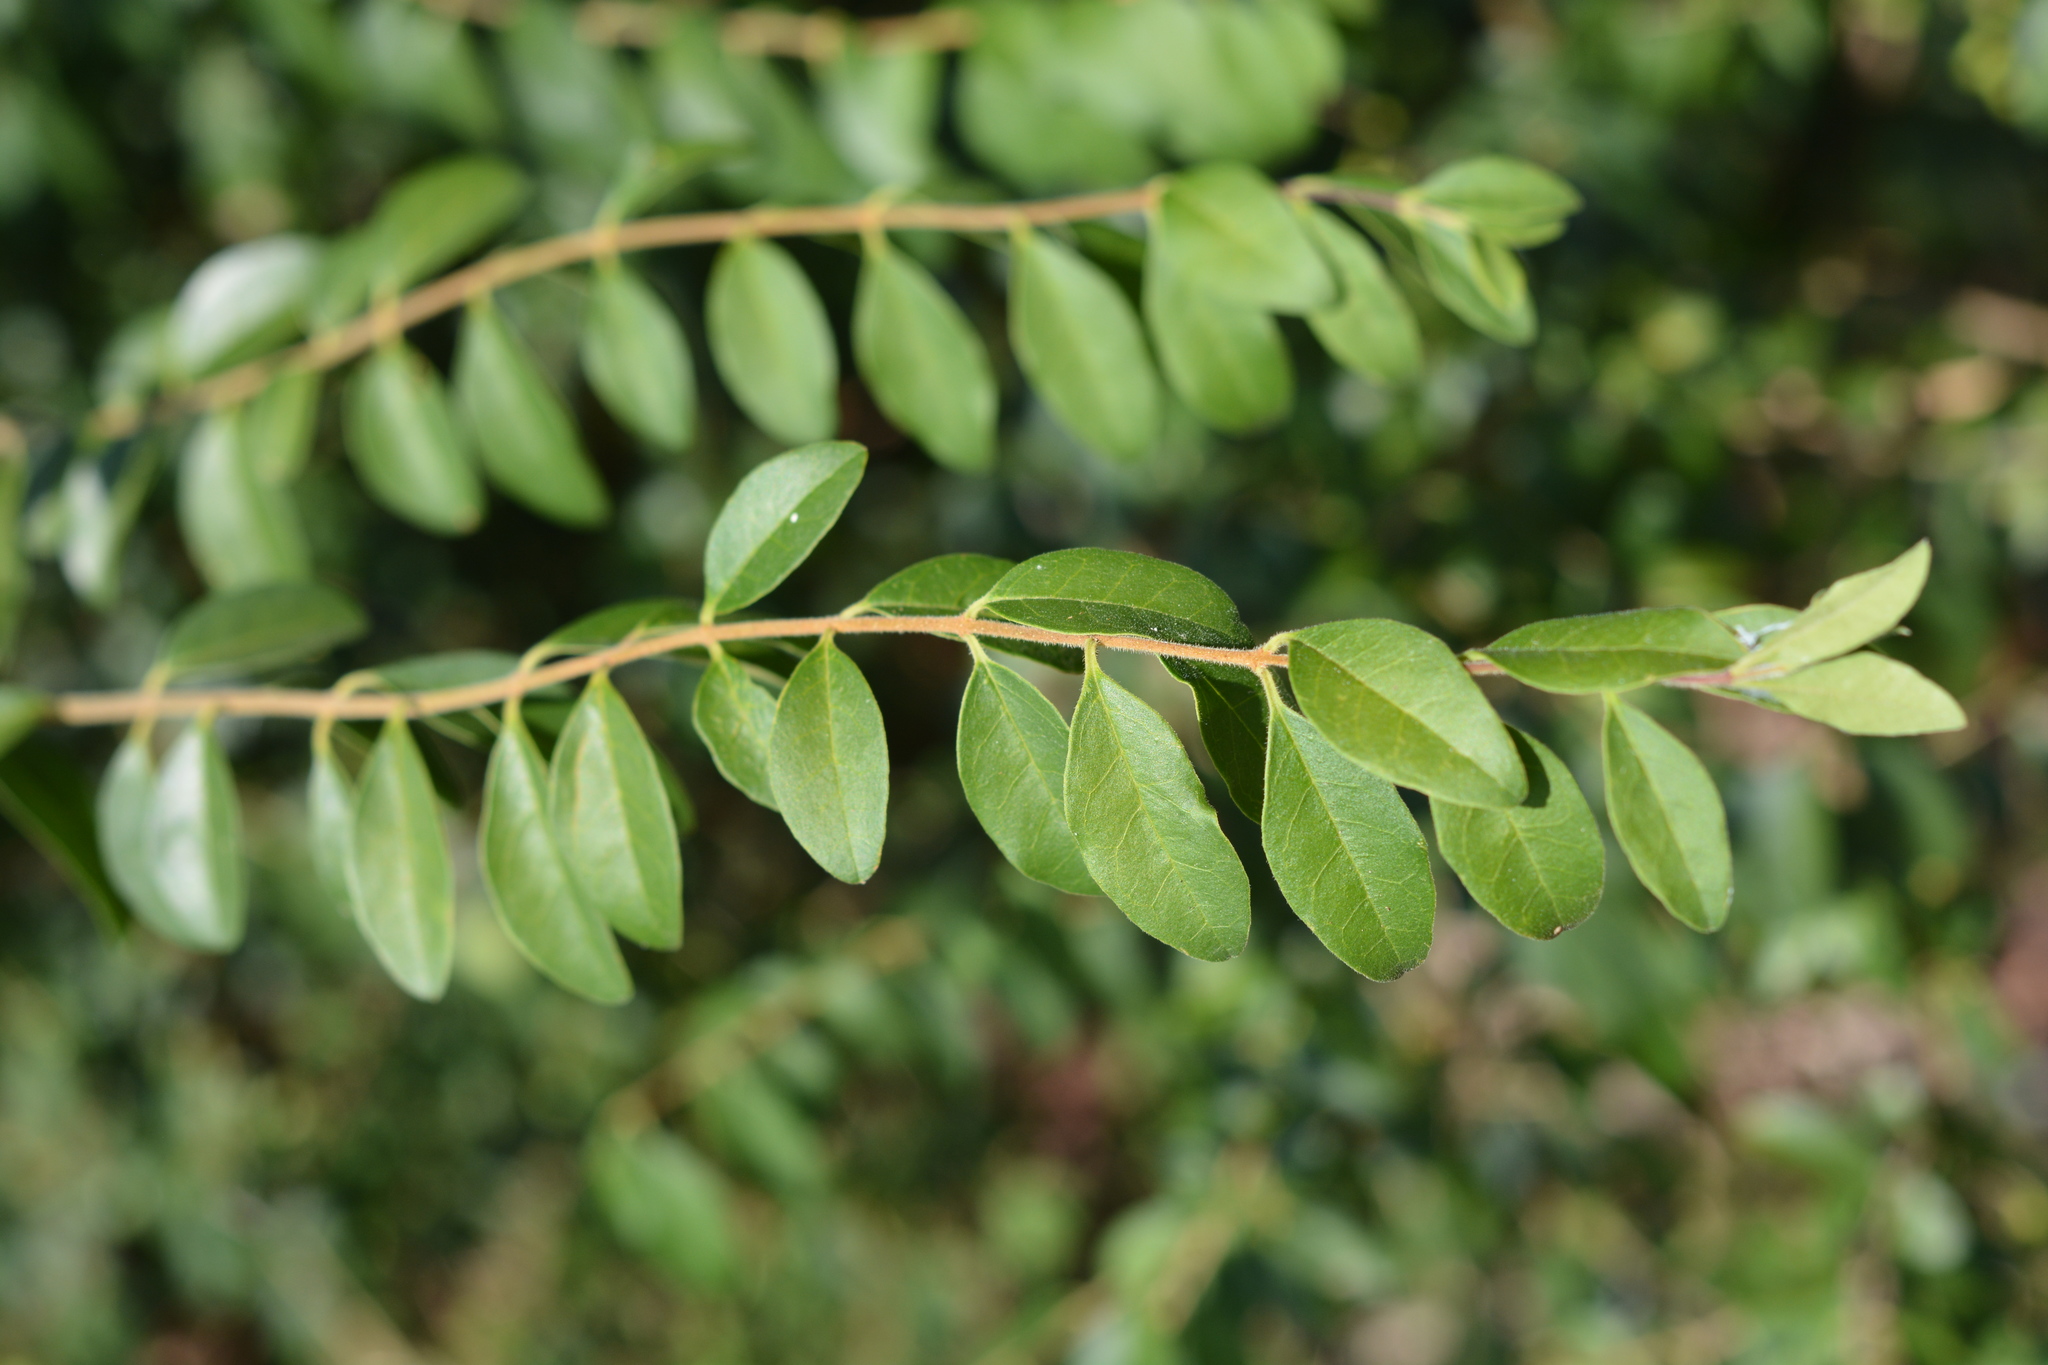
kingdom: Plantae
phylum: Tracheophyta
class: Magnoliopsida
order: Lamiales
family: Oleaceae
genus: Ligustrum
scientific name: Ligustrum sinense
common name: Chinese privet
